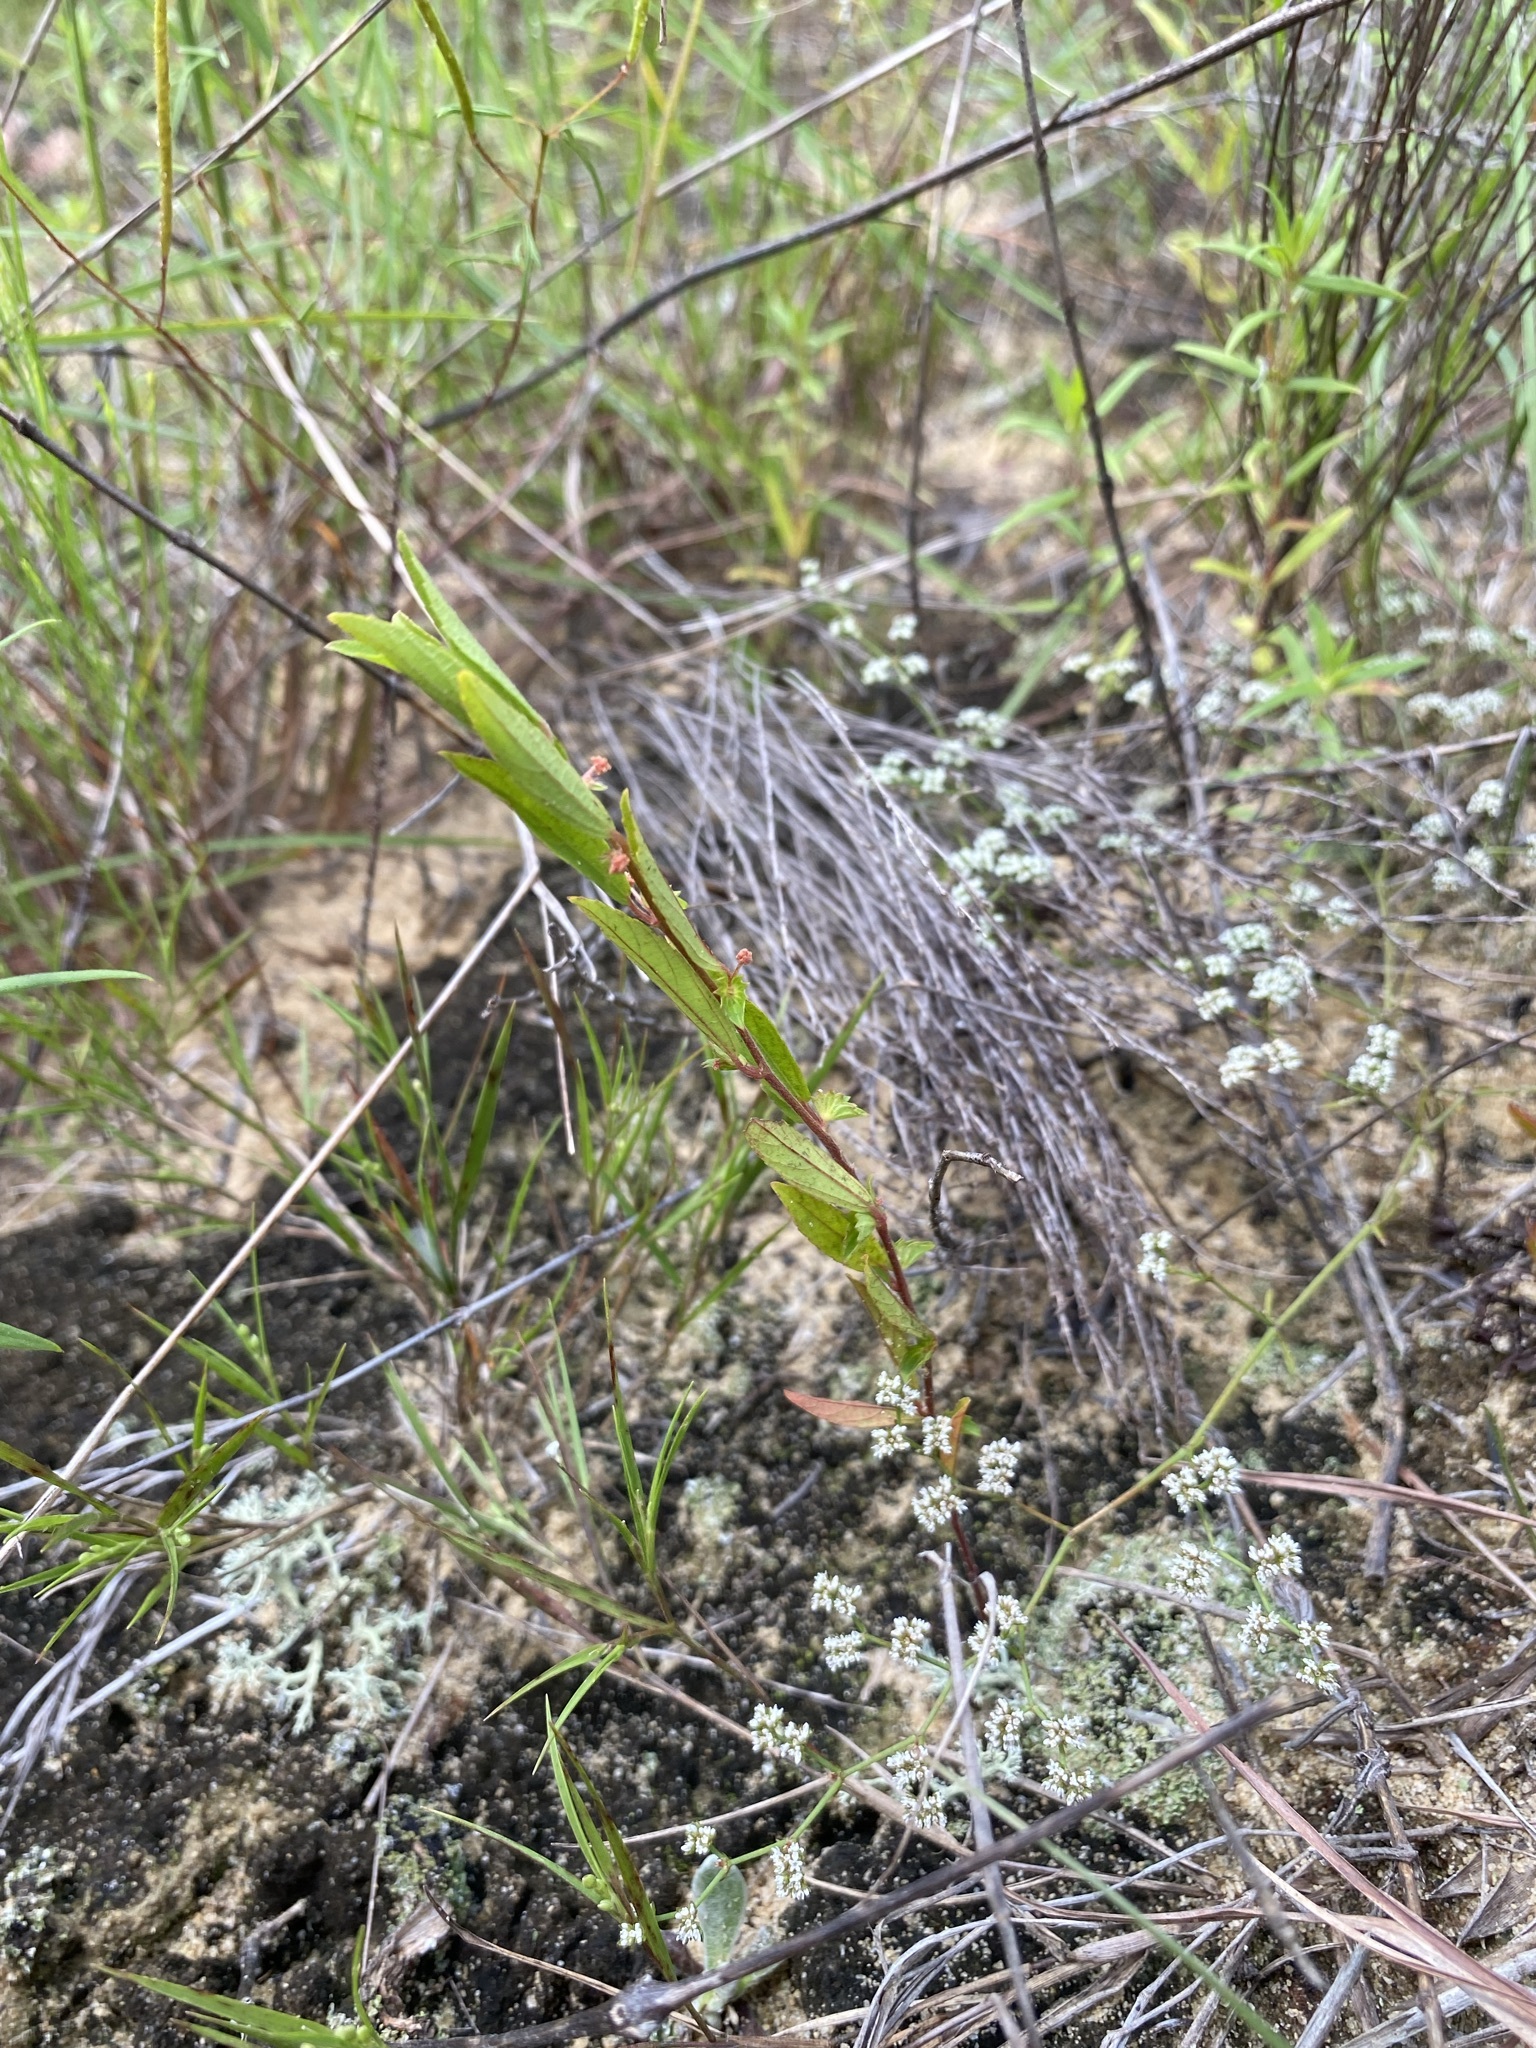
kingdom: Plantae
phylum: Tracheophyta
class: Magnoliopsida
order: Malpighiales
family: Euphorbiaceae
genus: Acalypha
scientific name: Acalypha gracilens
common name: Slender three-seeded mercury
